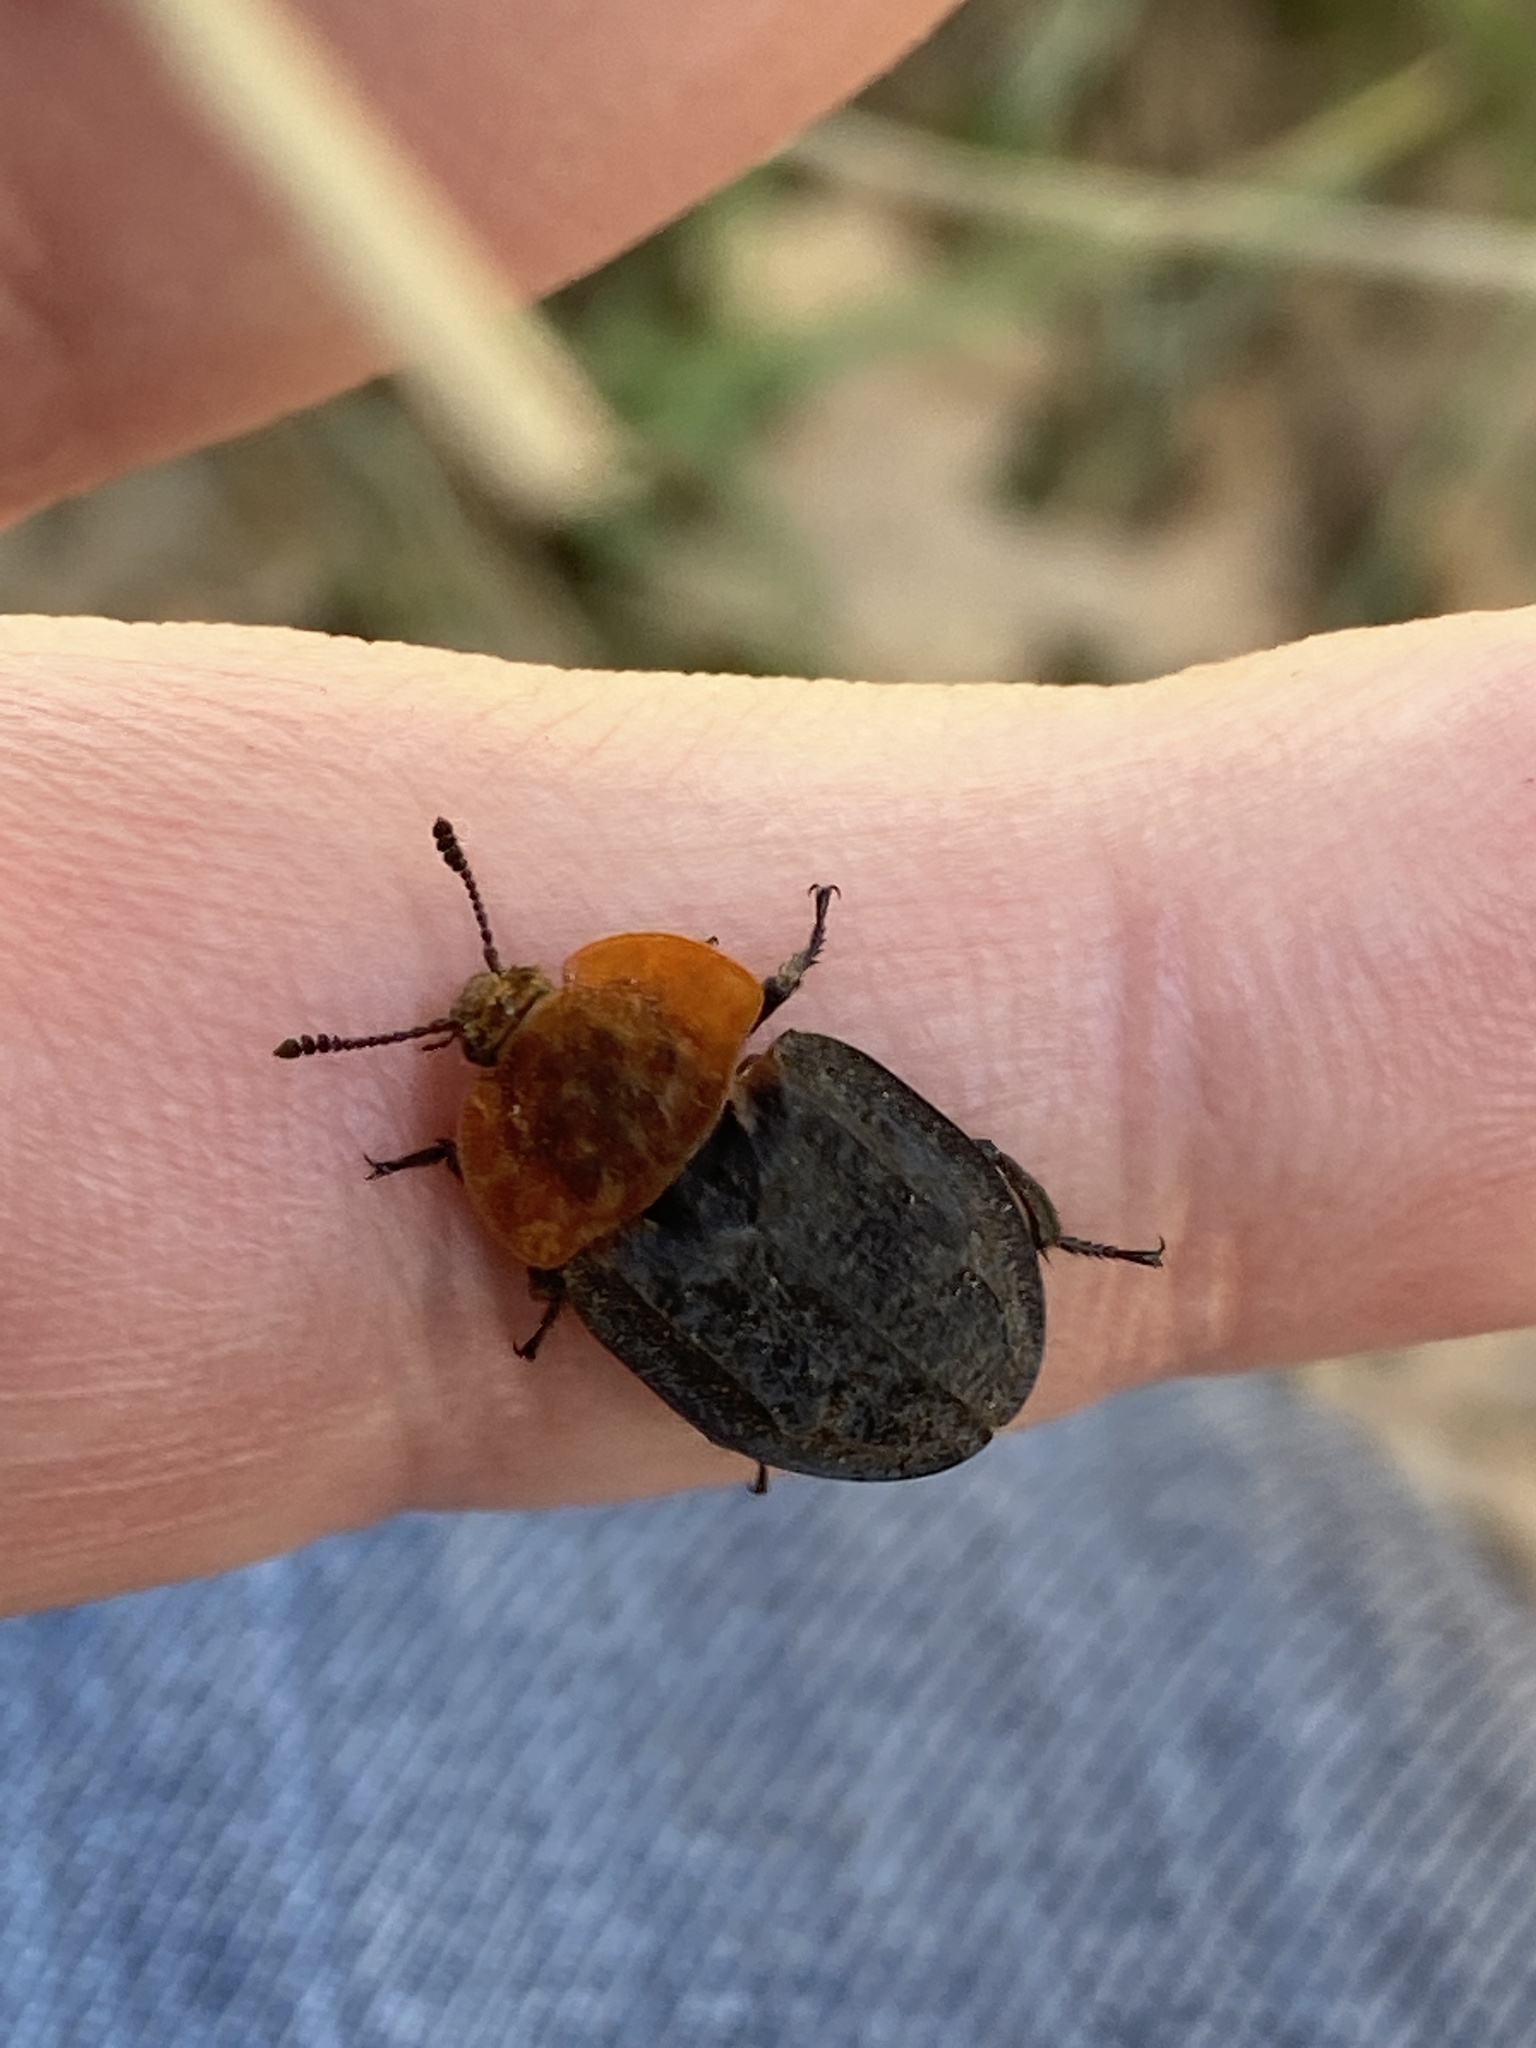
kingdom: Animalia
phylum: Arthropoda
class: Insecta
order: Coleoptera
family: Staphylinidae
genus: Oiceoptoma
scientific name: Oiceoptoma thoracicum
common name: Red-breasted carrion beetle
